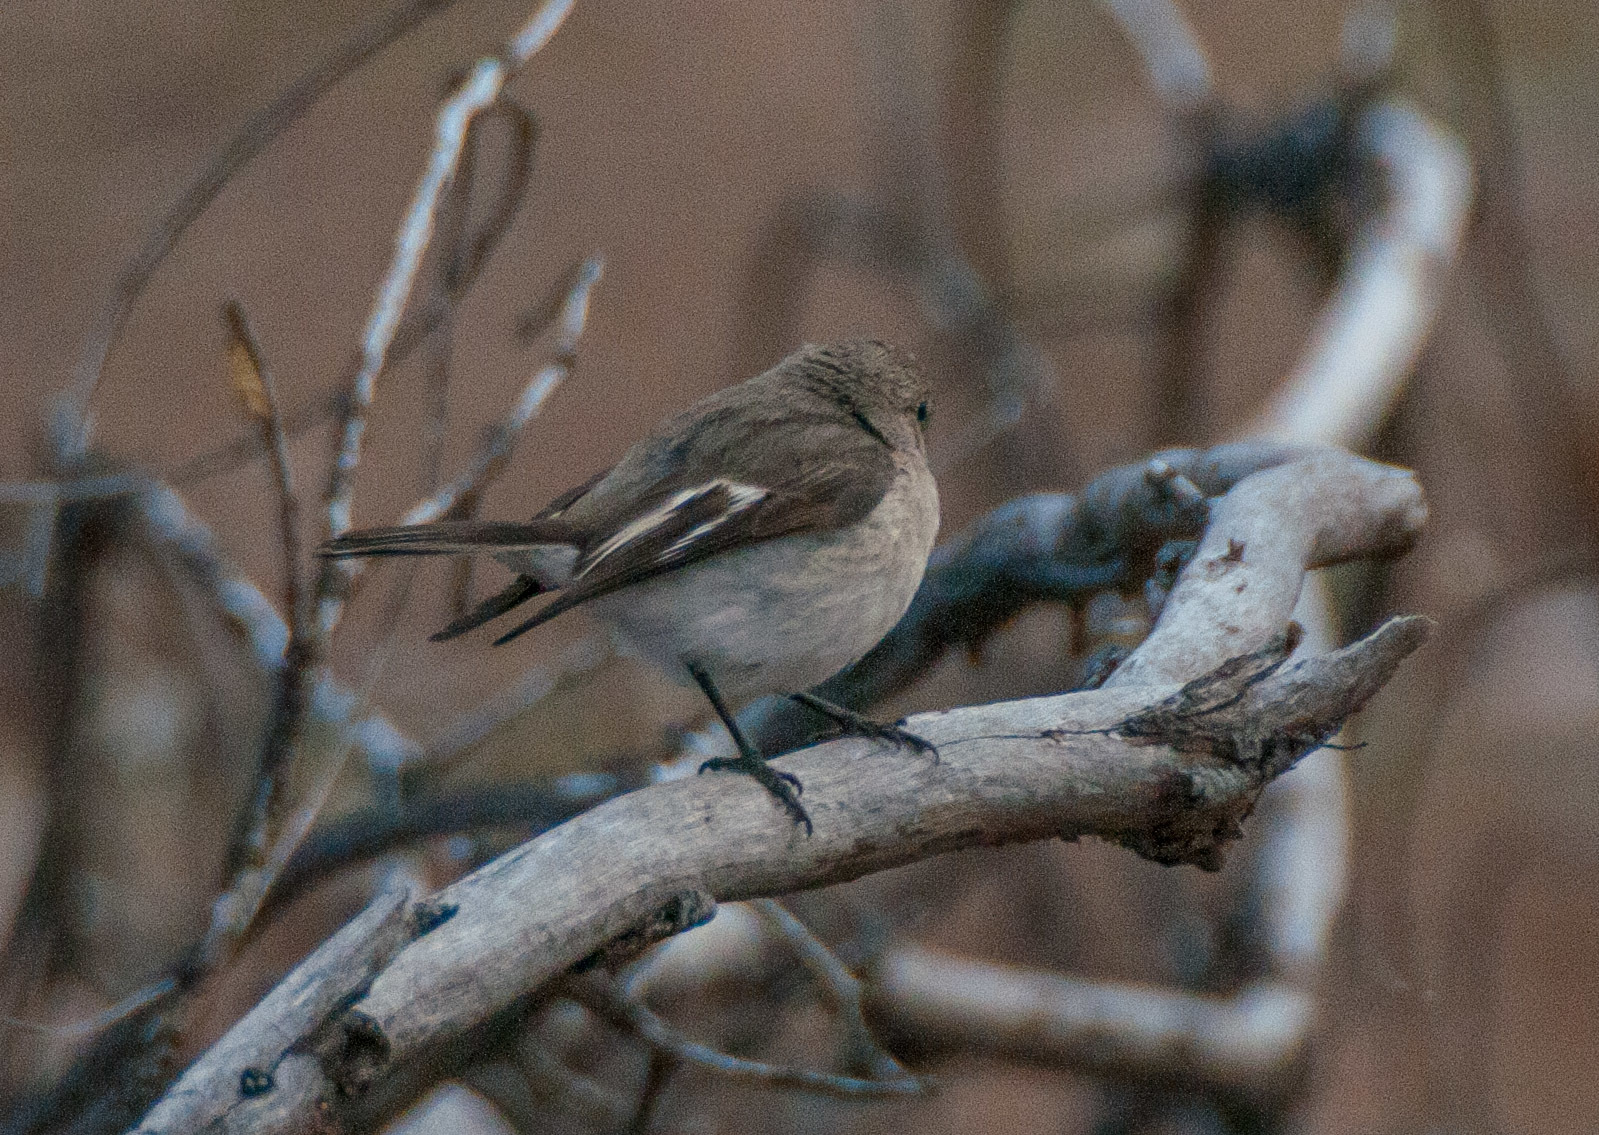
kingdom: Animalia
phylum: Chordata
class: Aves
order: Passeriformes
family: Petroicidae
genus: Petroica
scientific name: Petroica goodenovii
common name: Red-capped robin
